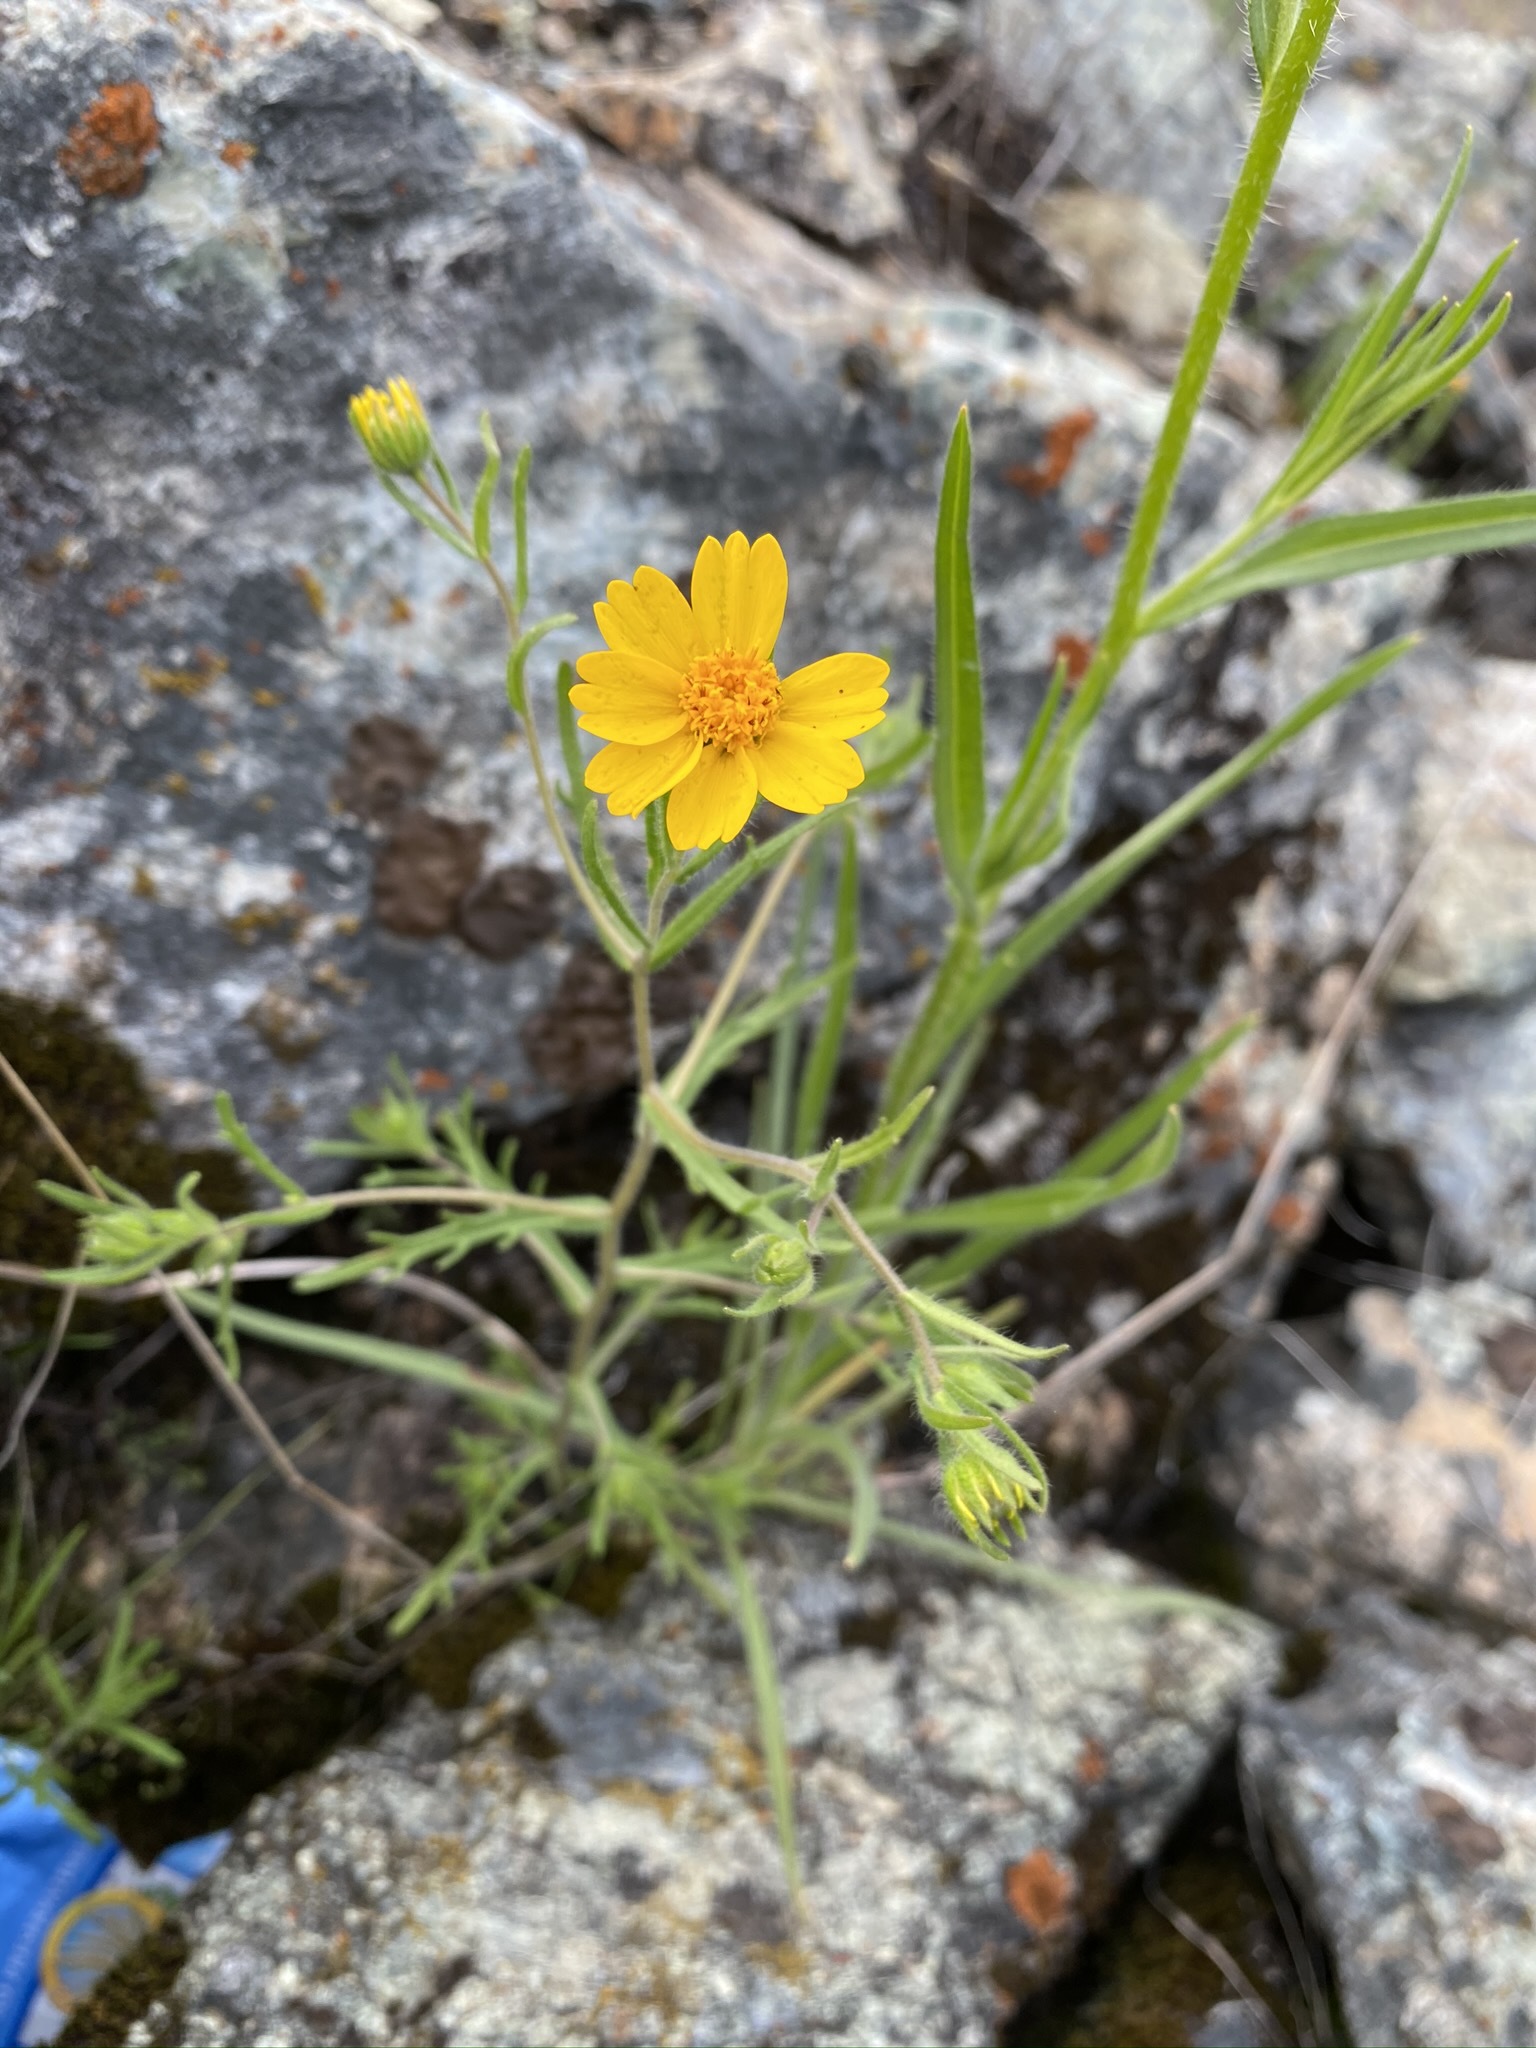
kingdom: Plantae
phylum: Tracheophyta
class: Magnoliopsida
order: Asterales
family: Asteraceae
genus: Layia
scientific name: Layia pentachaeta
